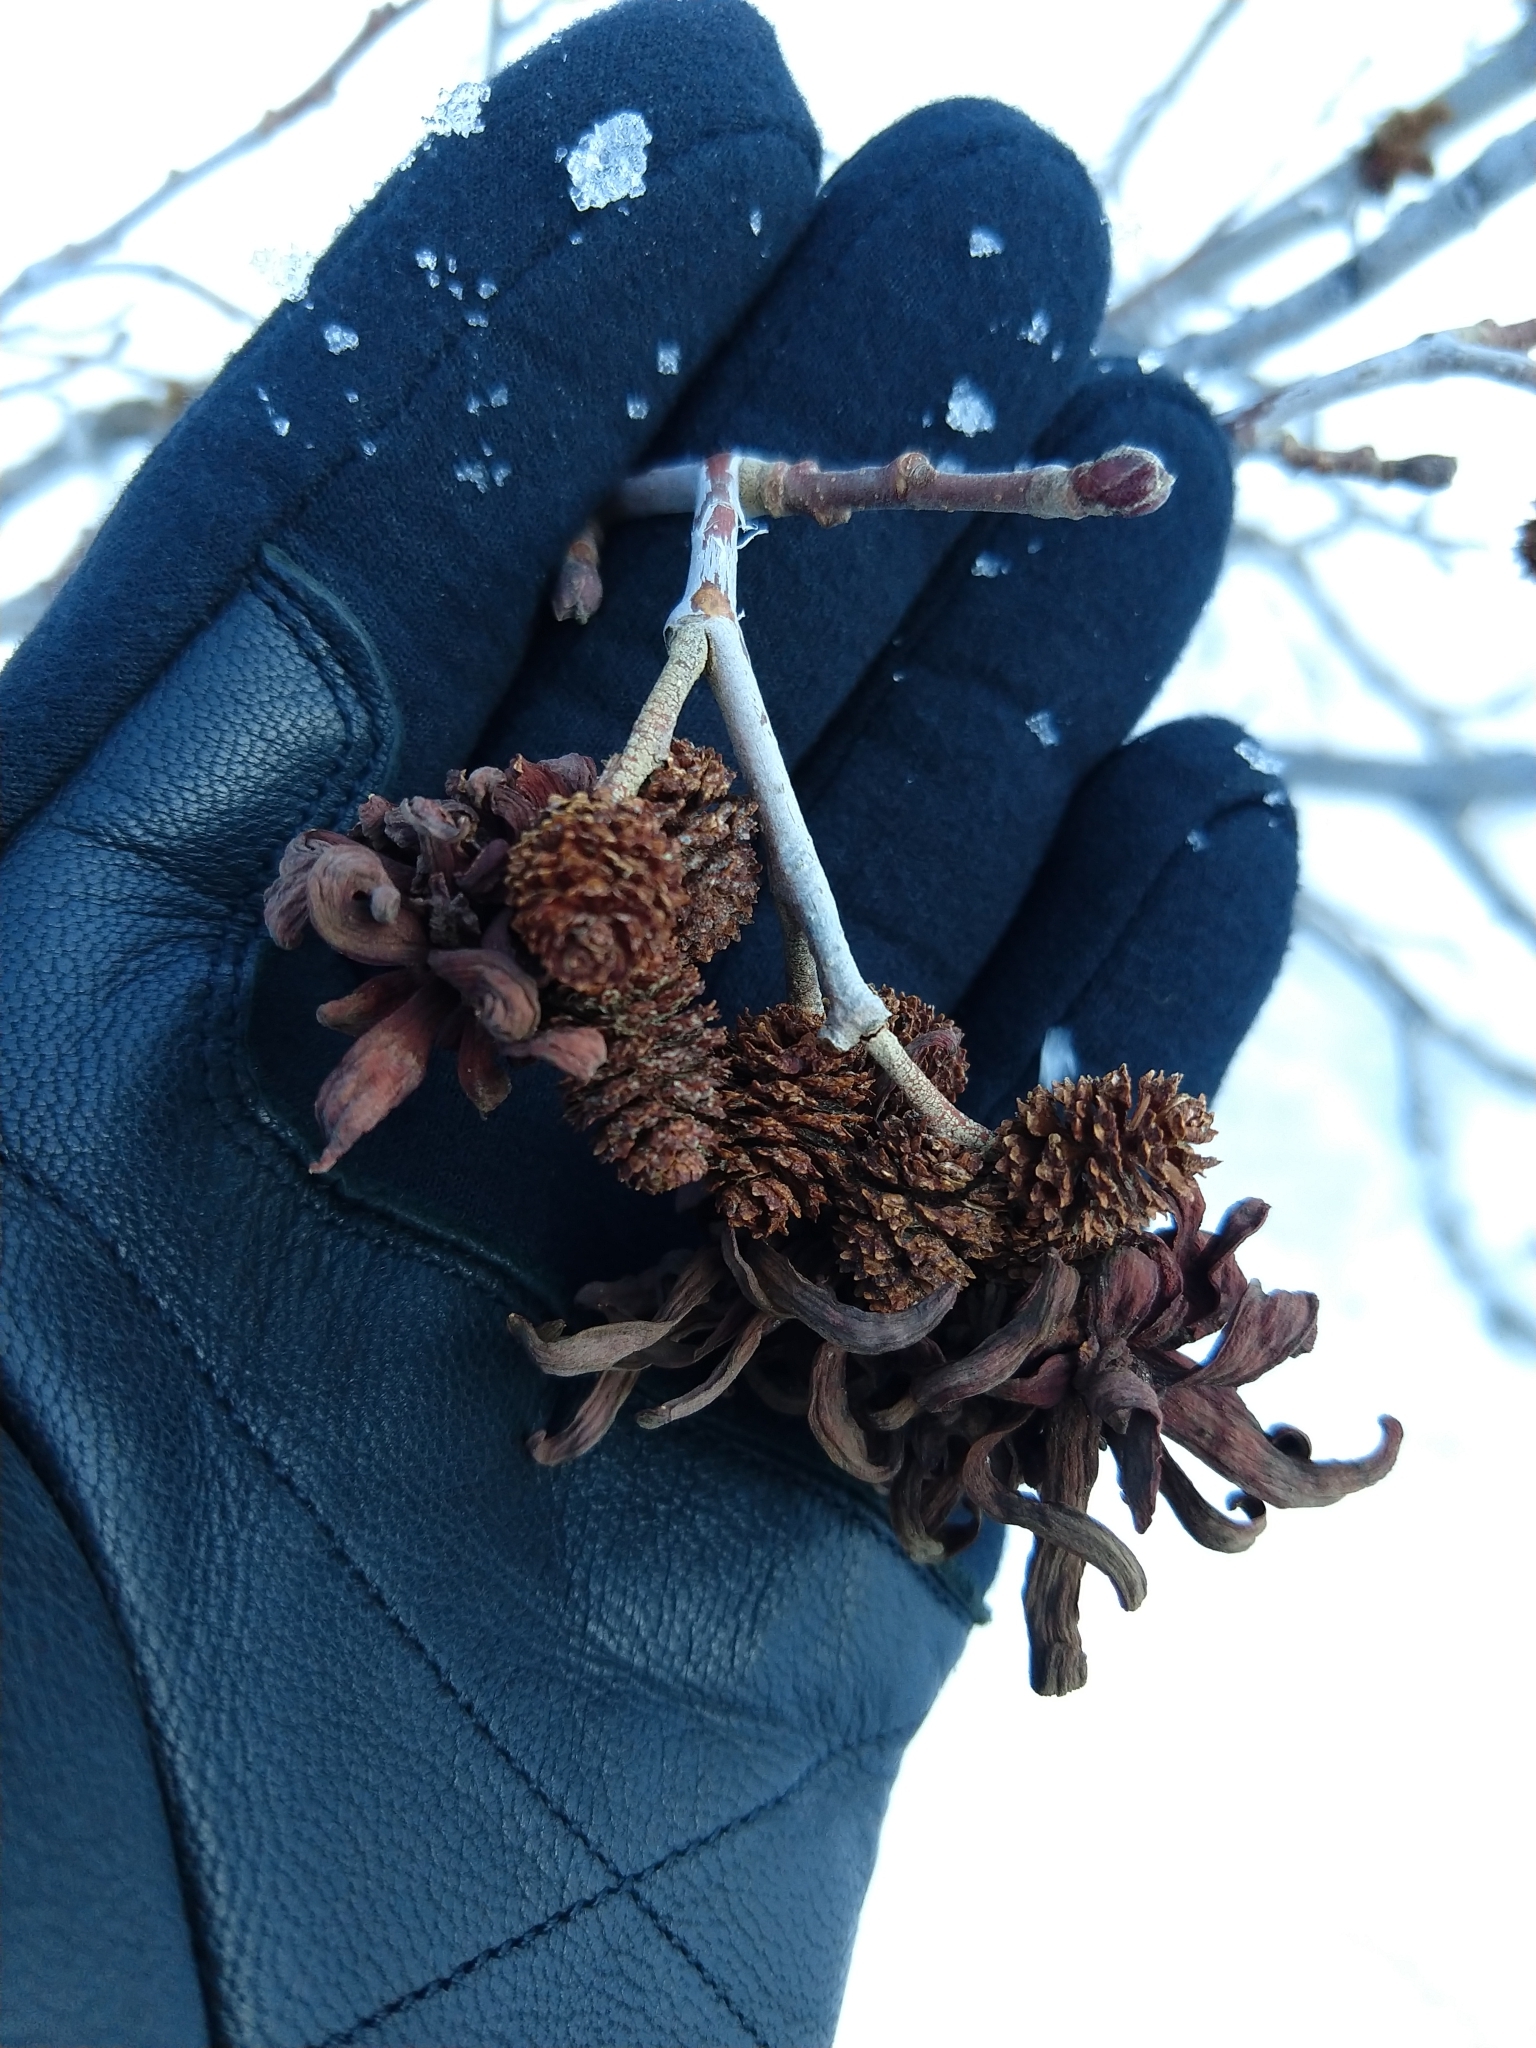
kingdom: Fungi
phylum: Ascomycota
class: Taphrinomycetes
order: Taphrinales
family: Taphrinaceae
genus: Taphrina
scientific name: Taphrina occidentalis
